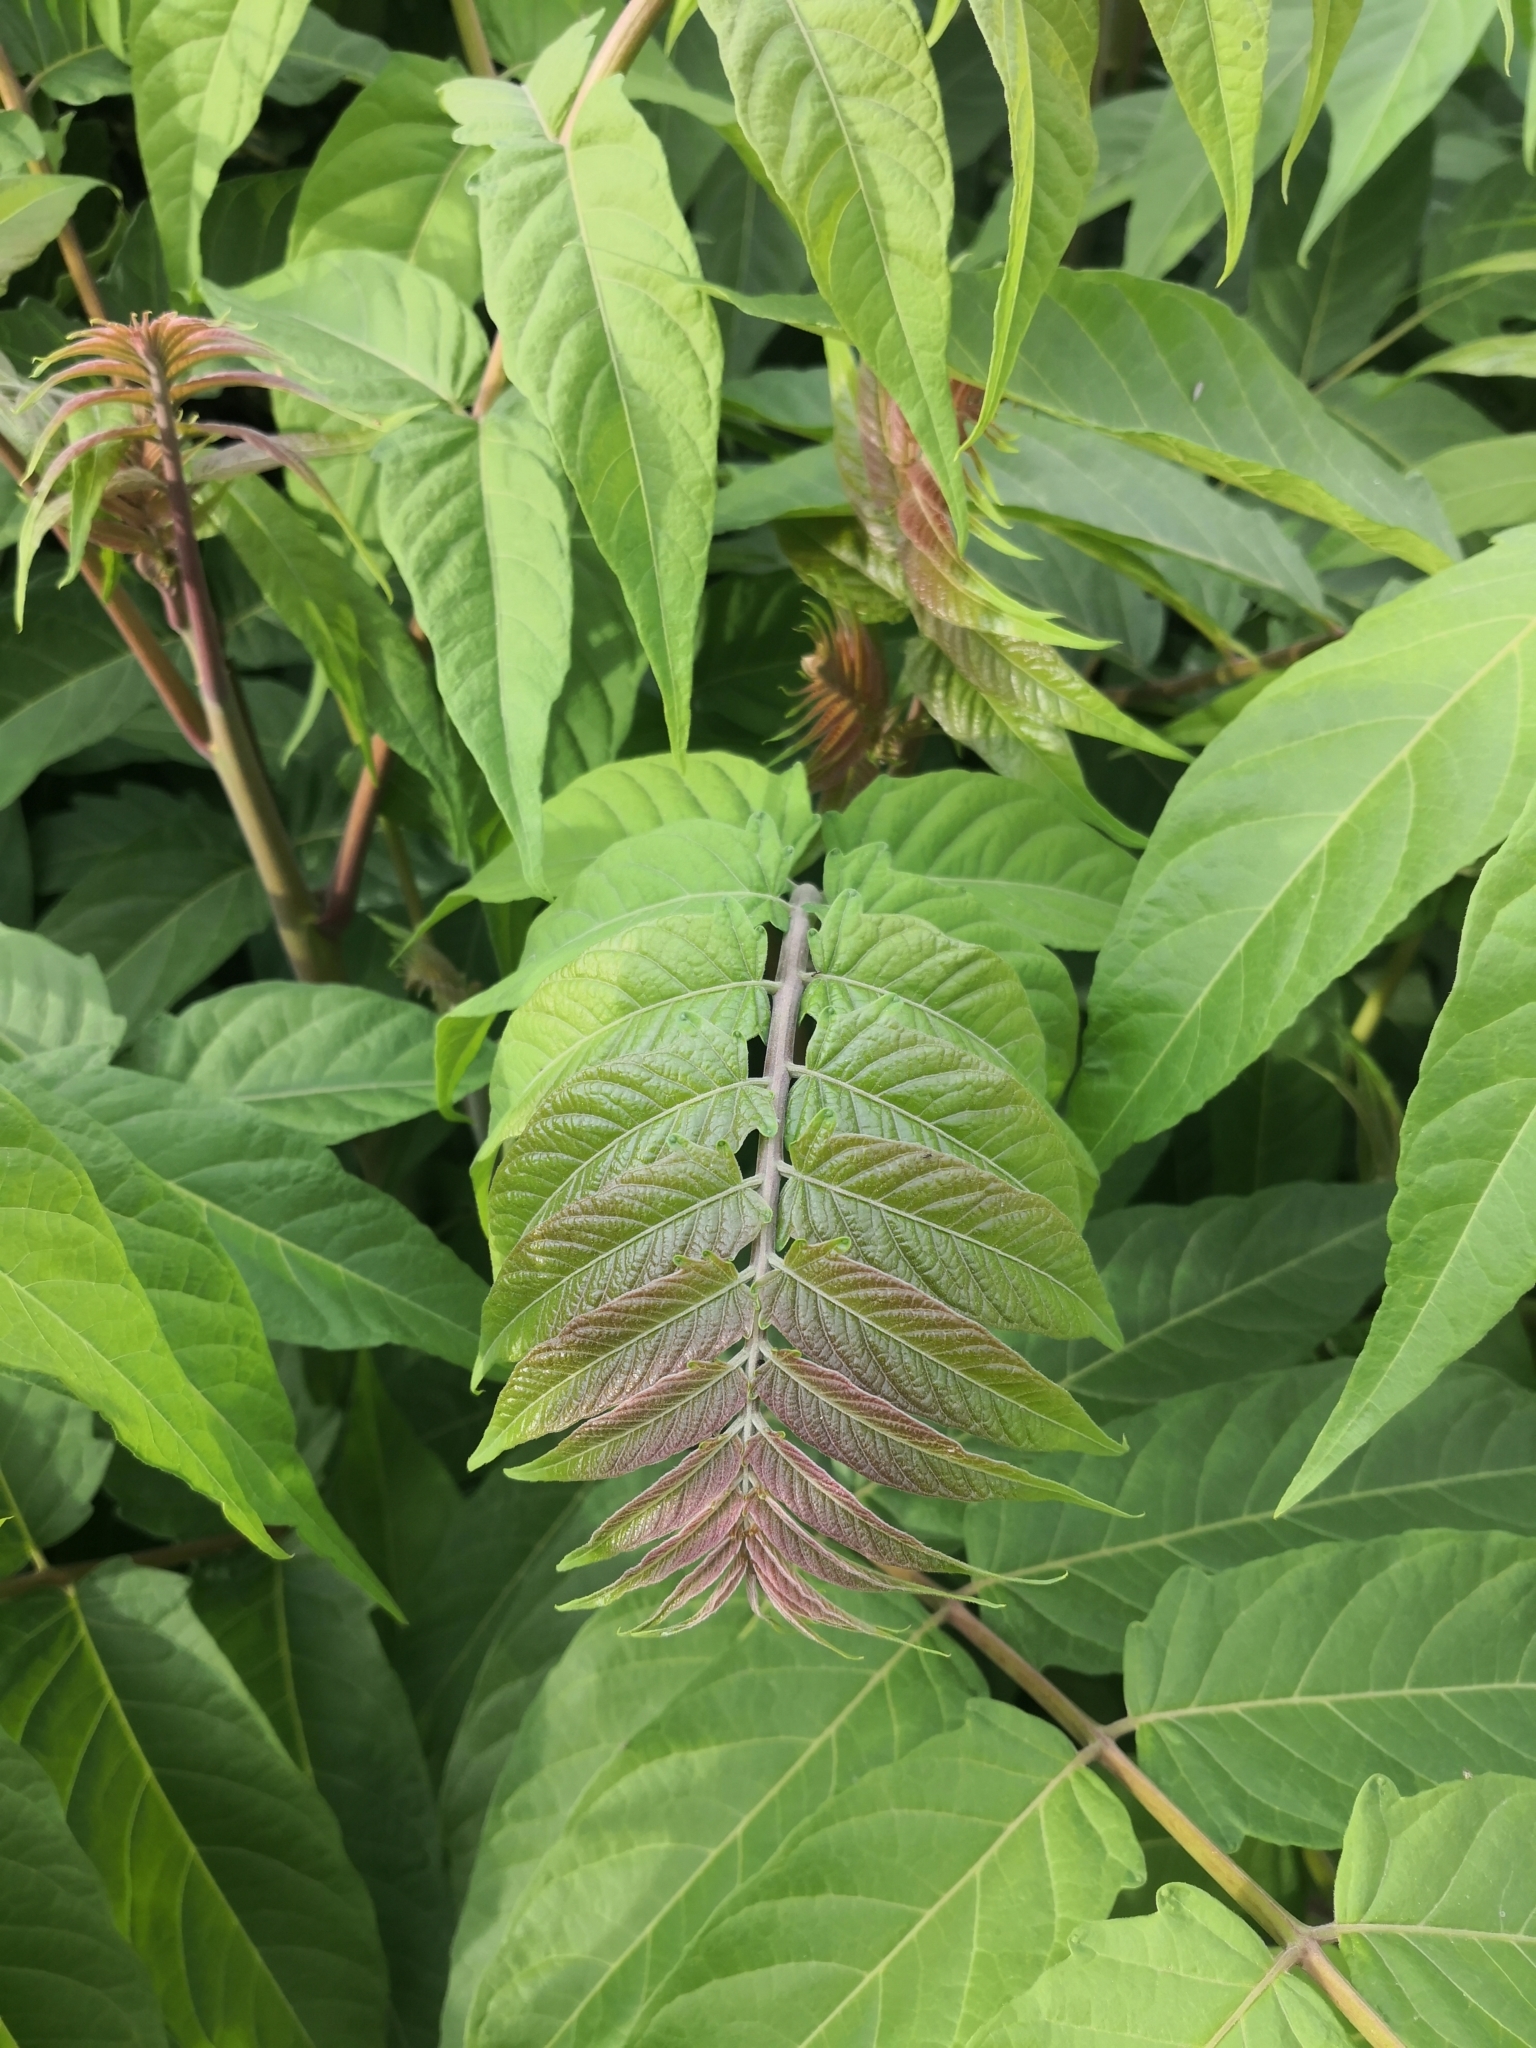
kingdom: Plantae
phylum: Tracheophyta
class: Magnoliopsida
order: Sapindales
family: Simaroubaceae
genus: Ailanthus
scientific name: Ailanthus altissima
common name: Tree-of-heaven
